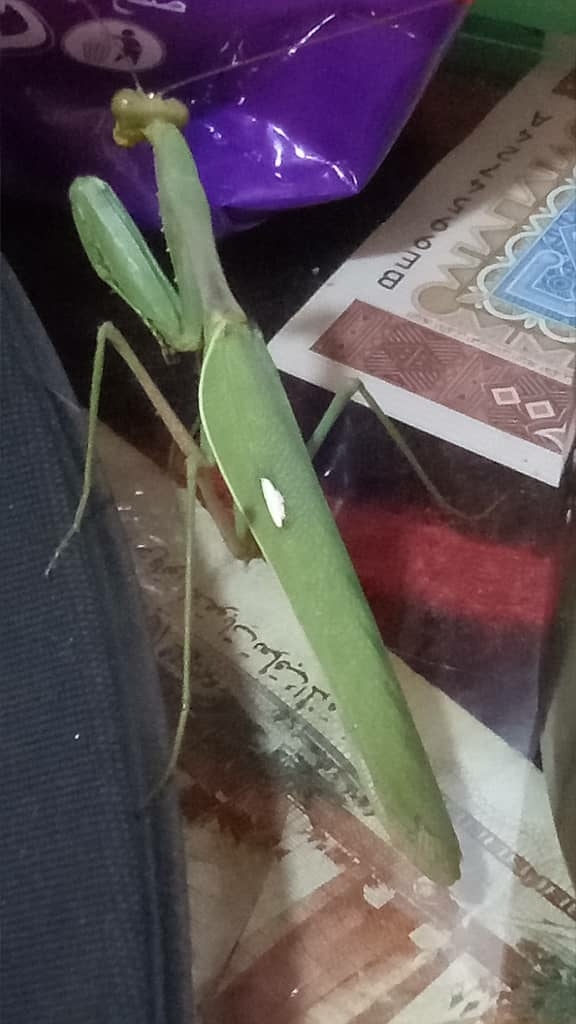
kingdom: Animalia
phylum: Arthropoda
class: Insecta
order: Mantodea
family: Mantidae
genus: Sphodromantis
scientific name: Sphodromantis viridis
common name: Giant african mantis
